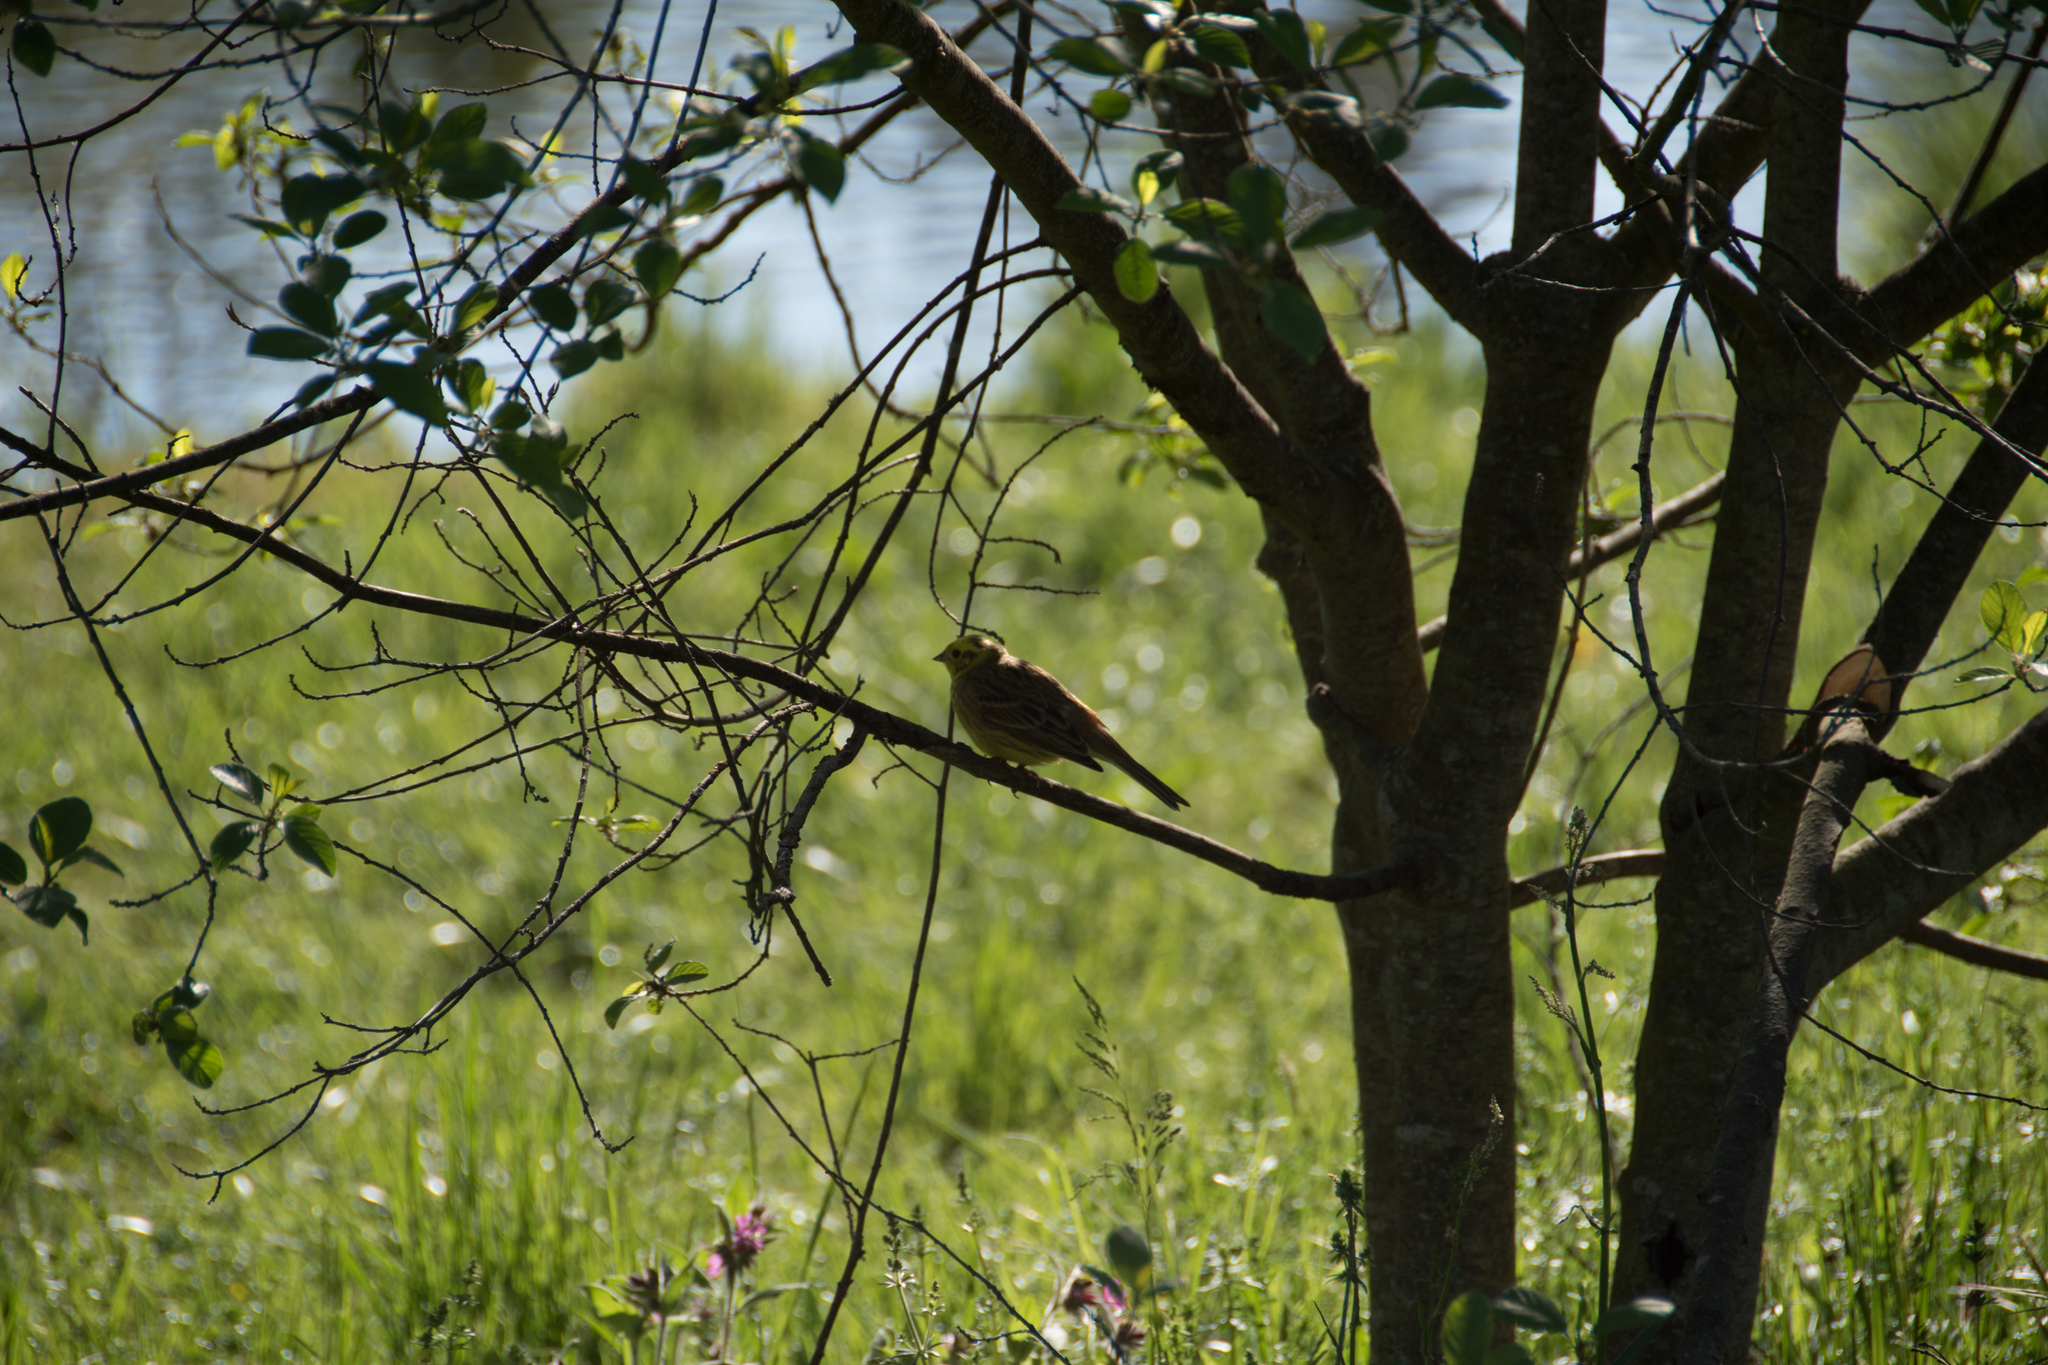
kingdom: Animalia
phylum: Chordata
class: Aves
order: Passeriformes
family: Emberizidae
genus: Emberiza
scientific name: Emberiza citrinella
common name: Yellowhammer
